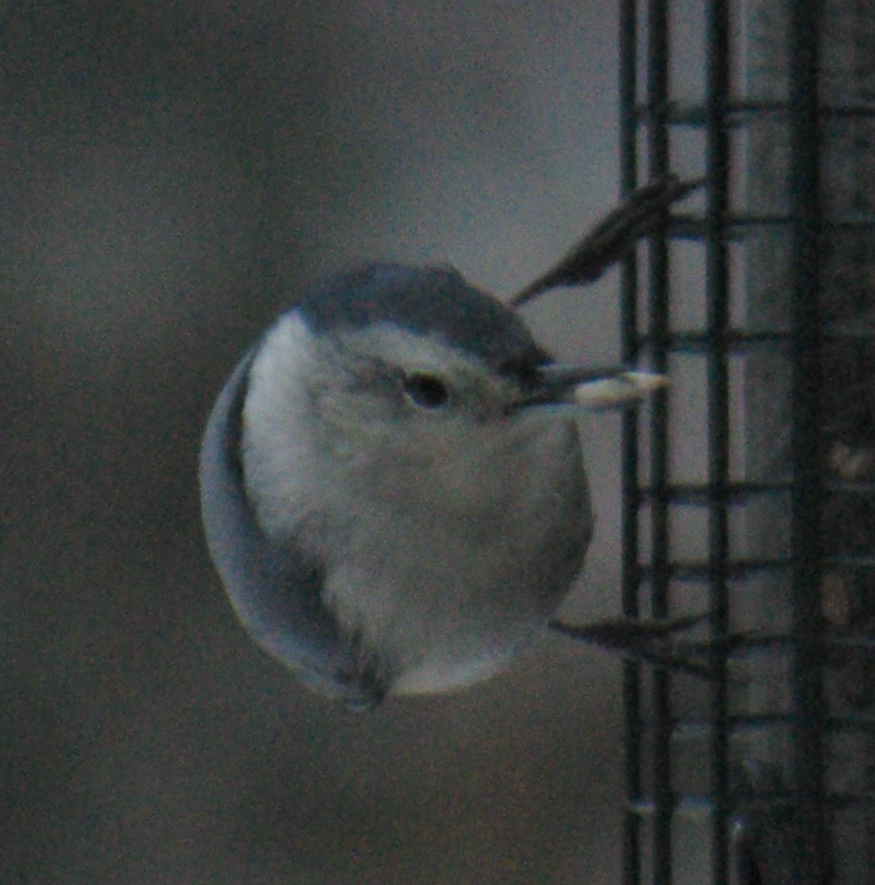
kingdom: Animalia
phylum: Chordata
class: Aves
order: Passeriformes
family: Sittidae
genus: Sitta
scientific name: Sitta carolinensis
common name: White-breasted nuthatch
